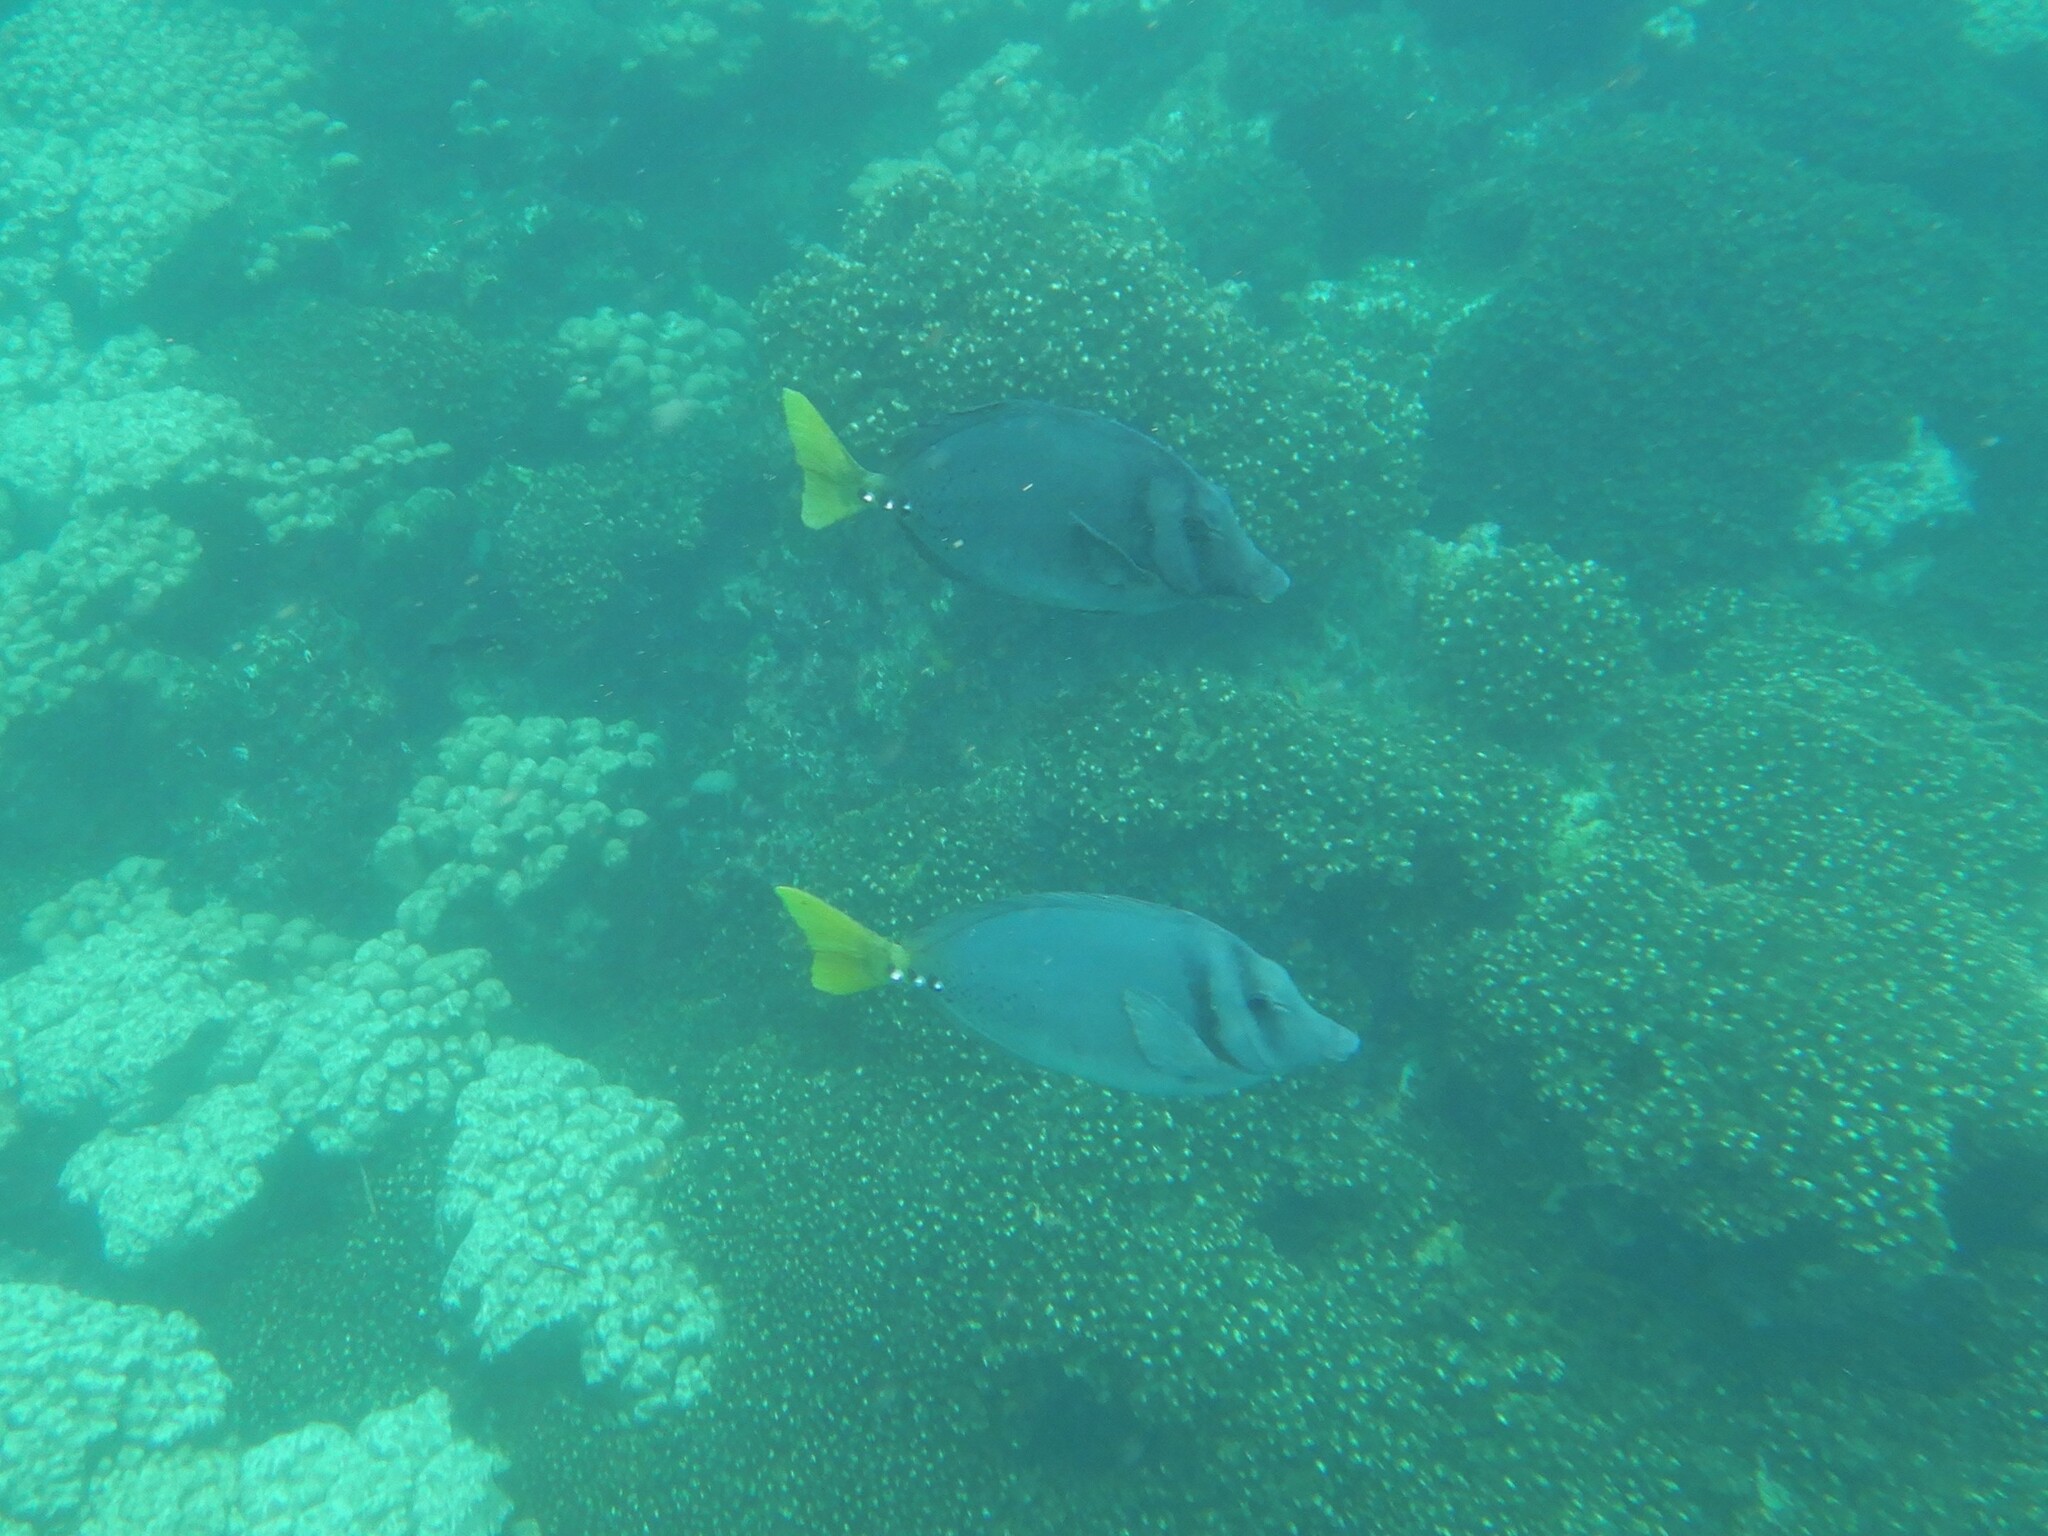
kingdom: Animalia
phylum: Chordata
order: Perciformes
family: Acanthuridae
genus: Prionurus
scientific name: Prionurus laticlavius
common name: Razor surgeonfish
